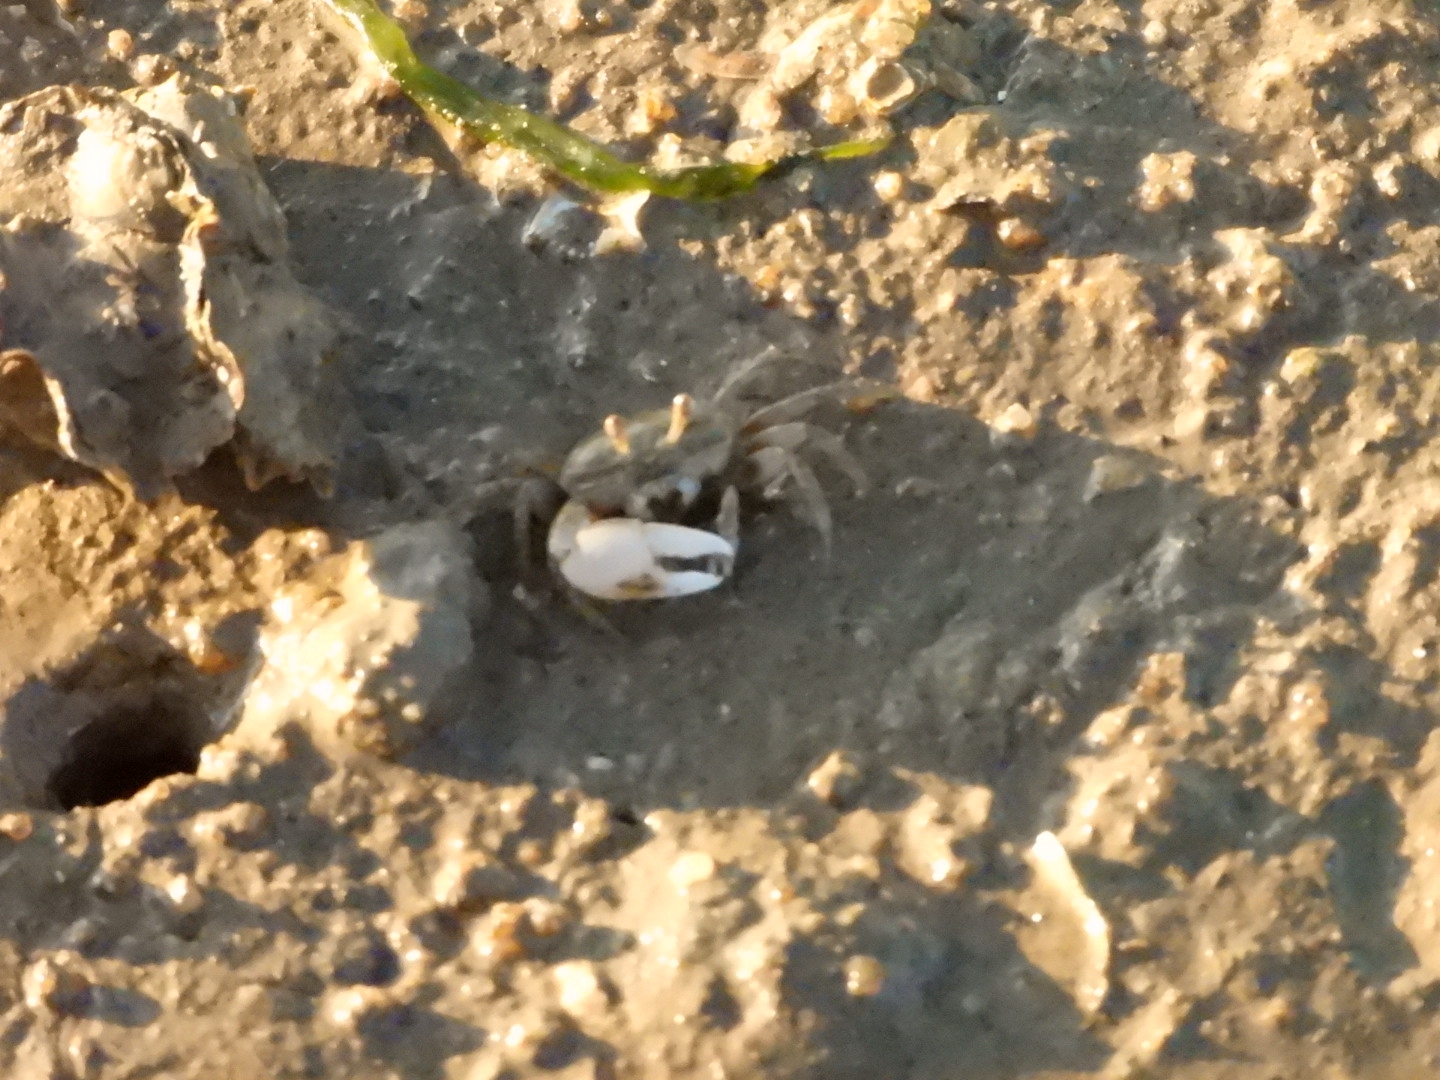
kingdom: Animalia
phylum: Arthropoda
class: Malacostraca
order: Decapoda
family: Ocypodidae
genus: Gelasimus
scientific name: Gelasimus borealis
